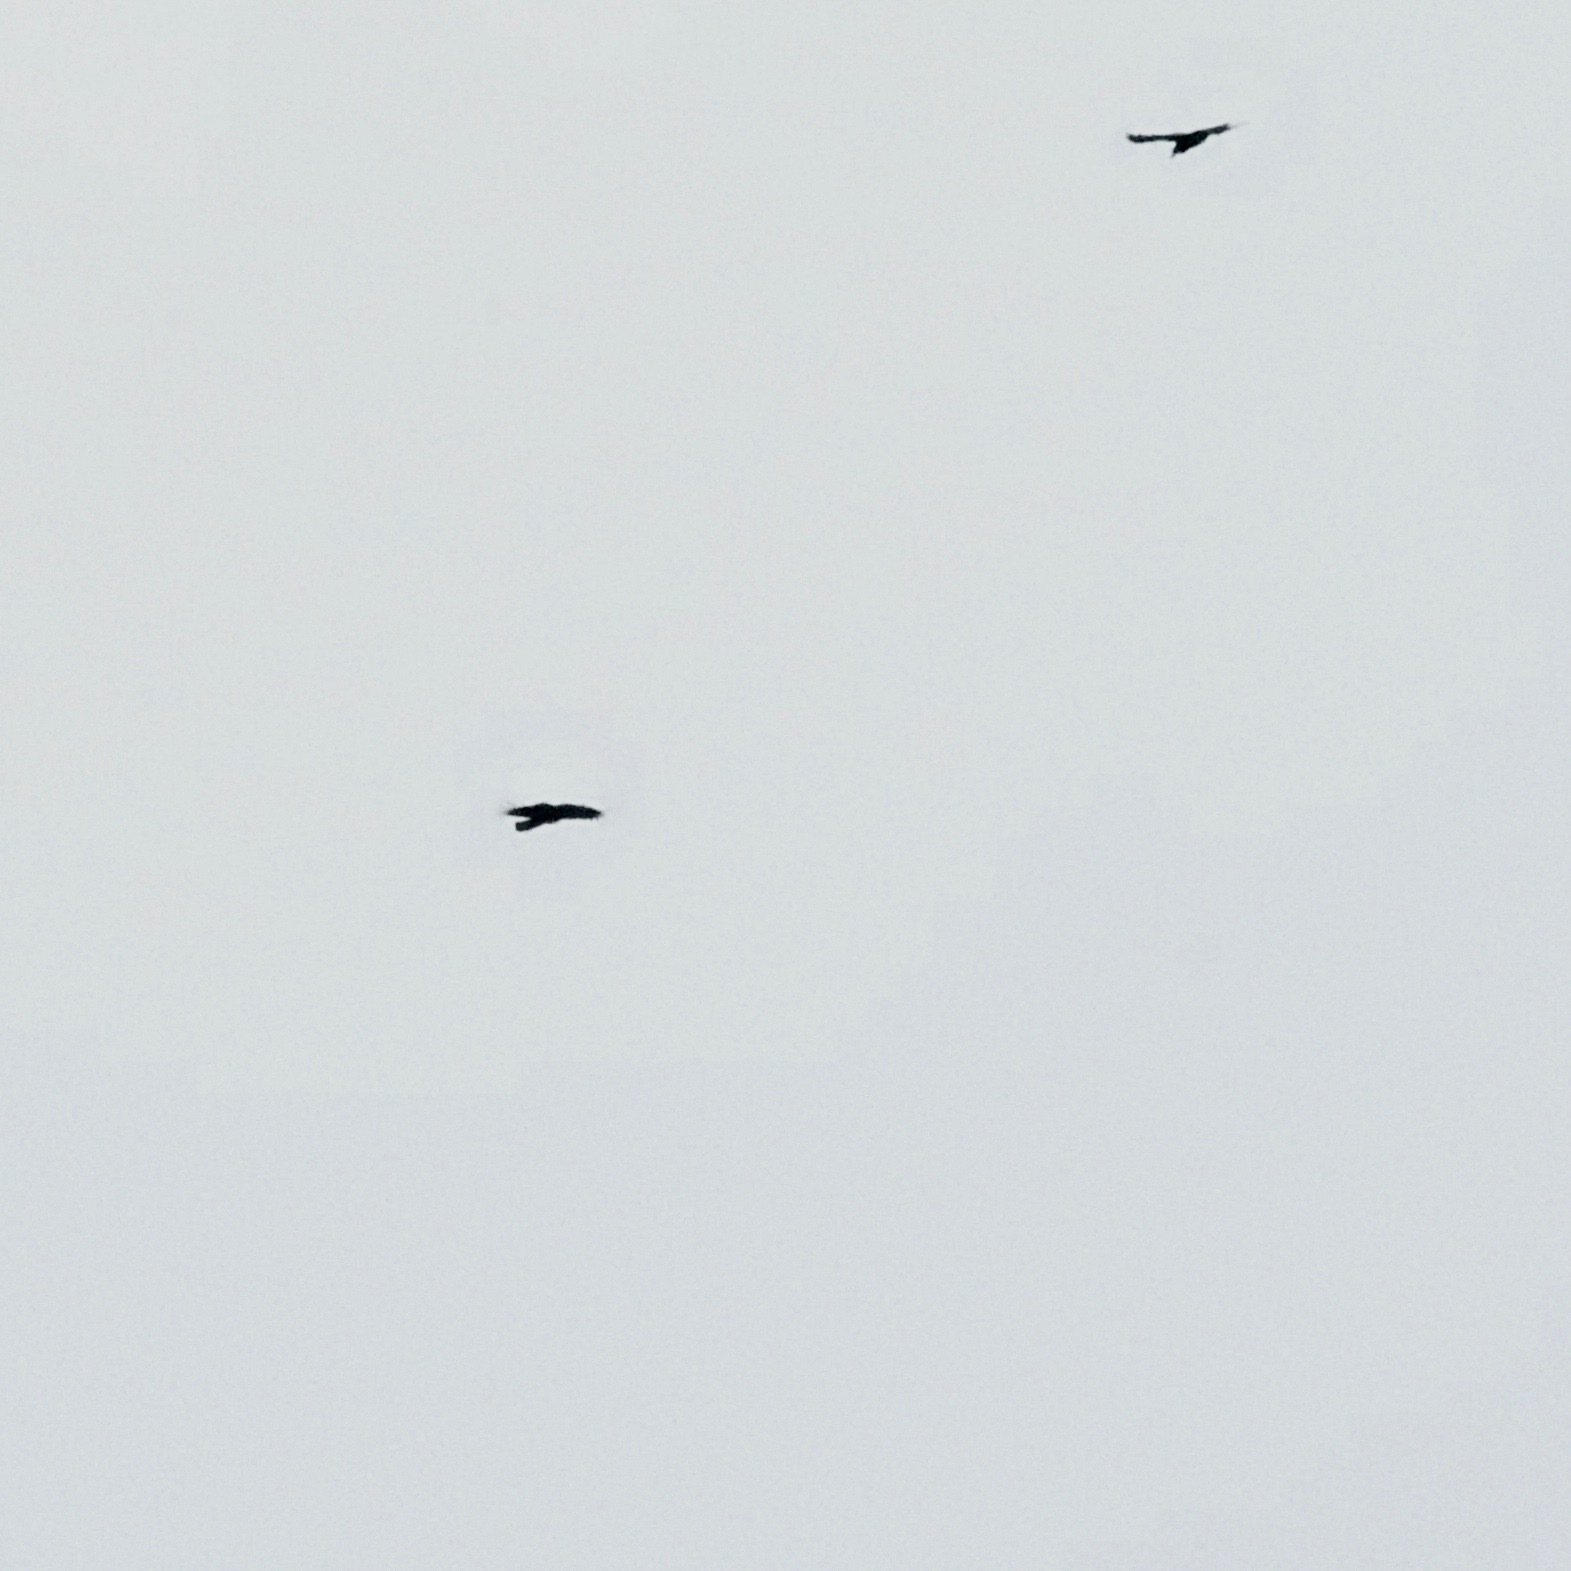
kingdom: Animalia
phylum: Chordata
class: Aves
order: Passeriformes
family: Corvidae
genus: Corvus
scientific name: Corvus corax
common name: Common raven
